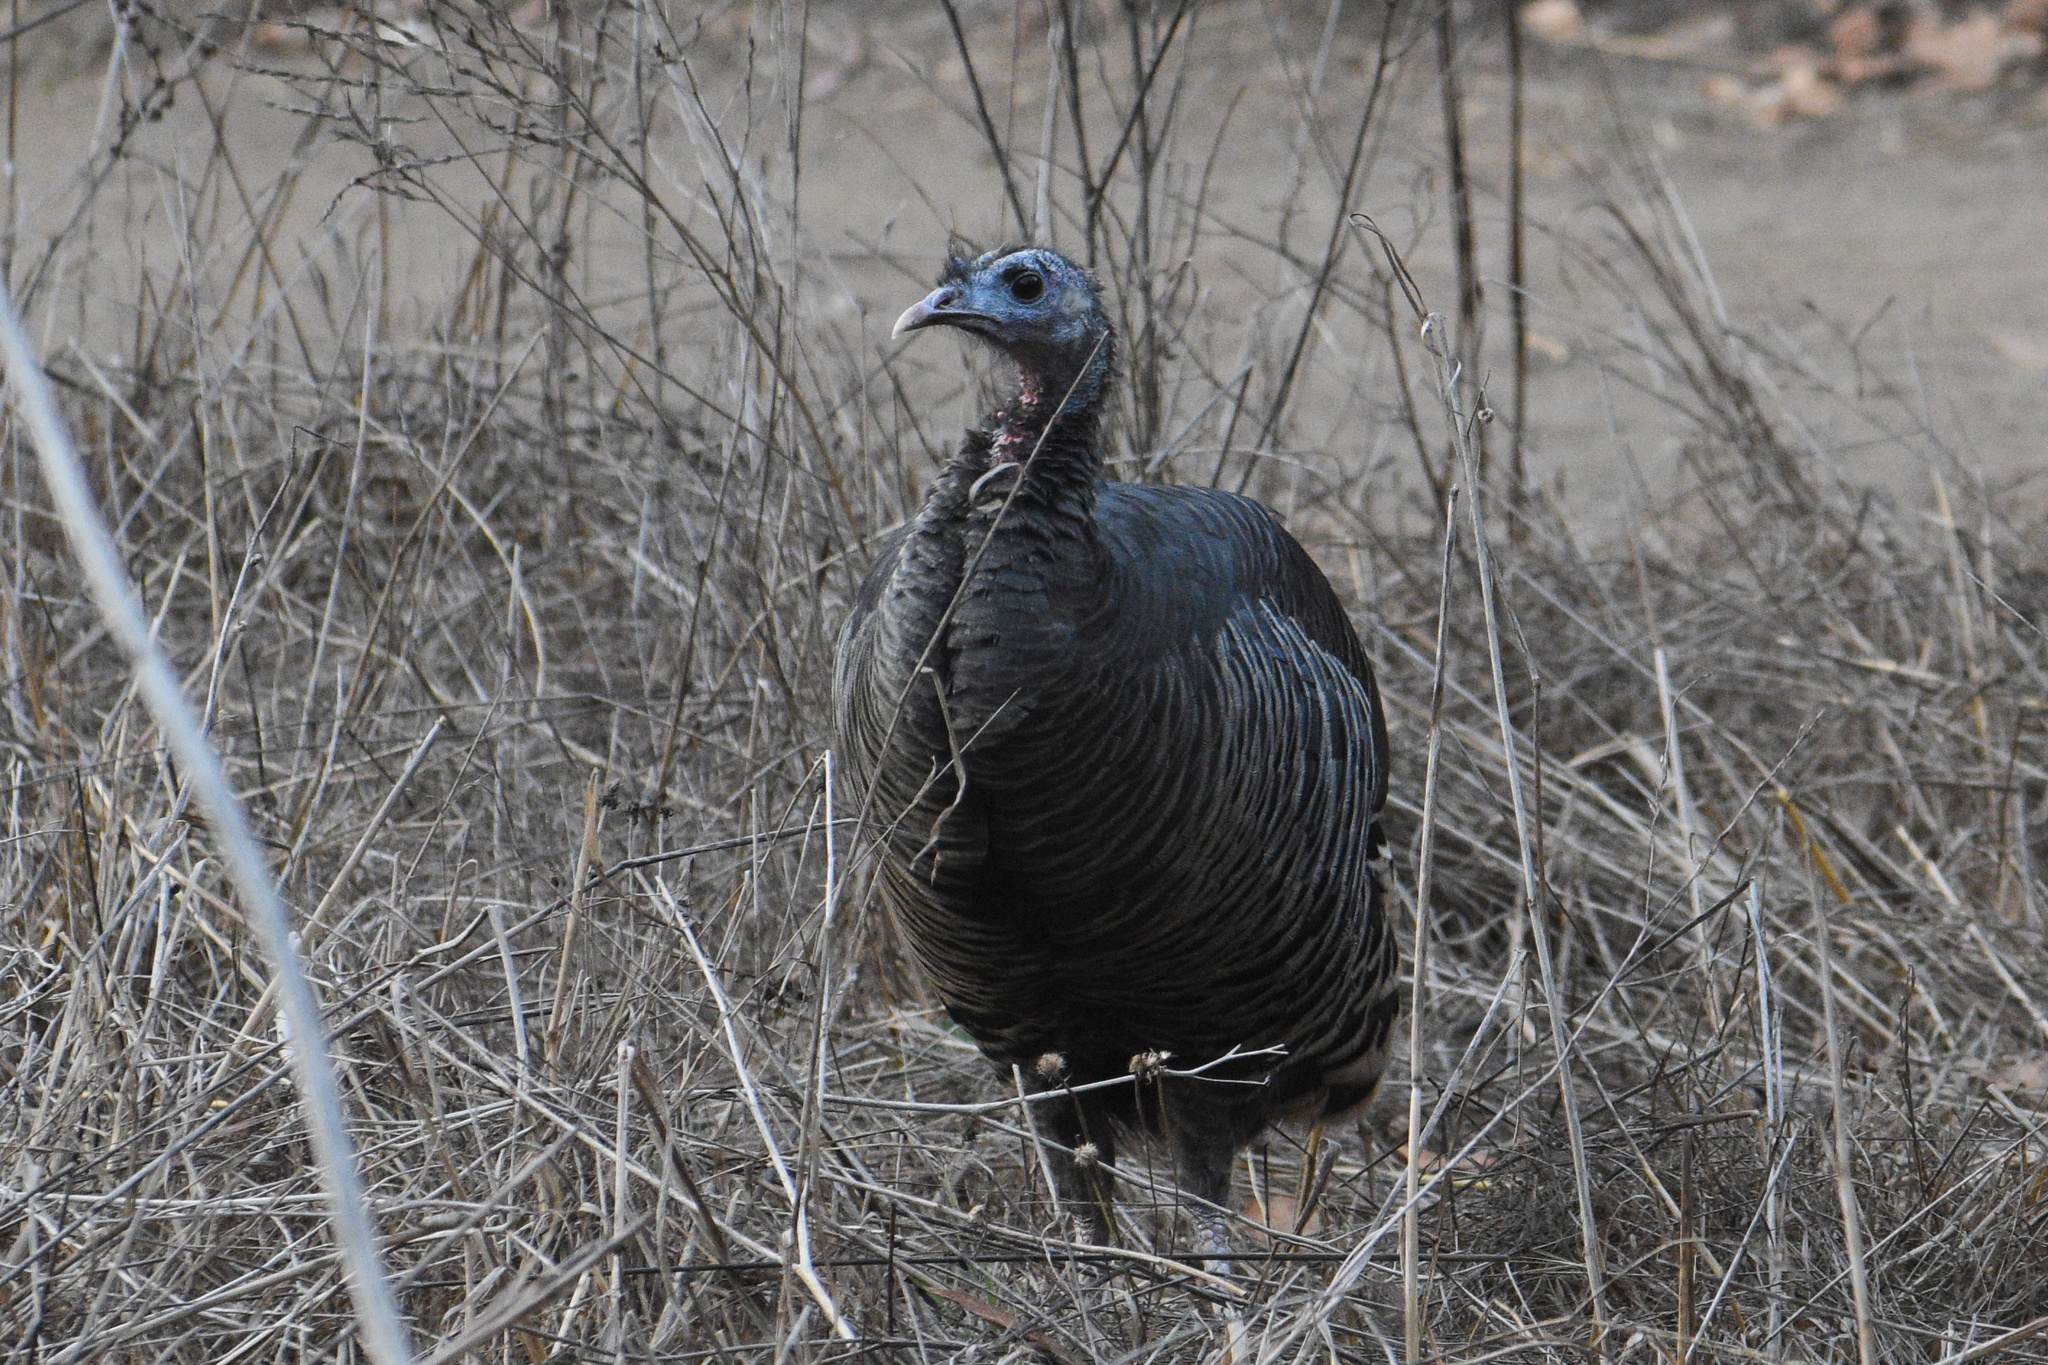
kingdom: Animalia
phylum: Chordata
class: Aves
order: Galliformes
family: Phasianidae
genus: Meleagris
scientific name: Meleagris gallopavo
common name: Wild turkey
